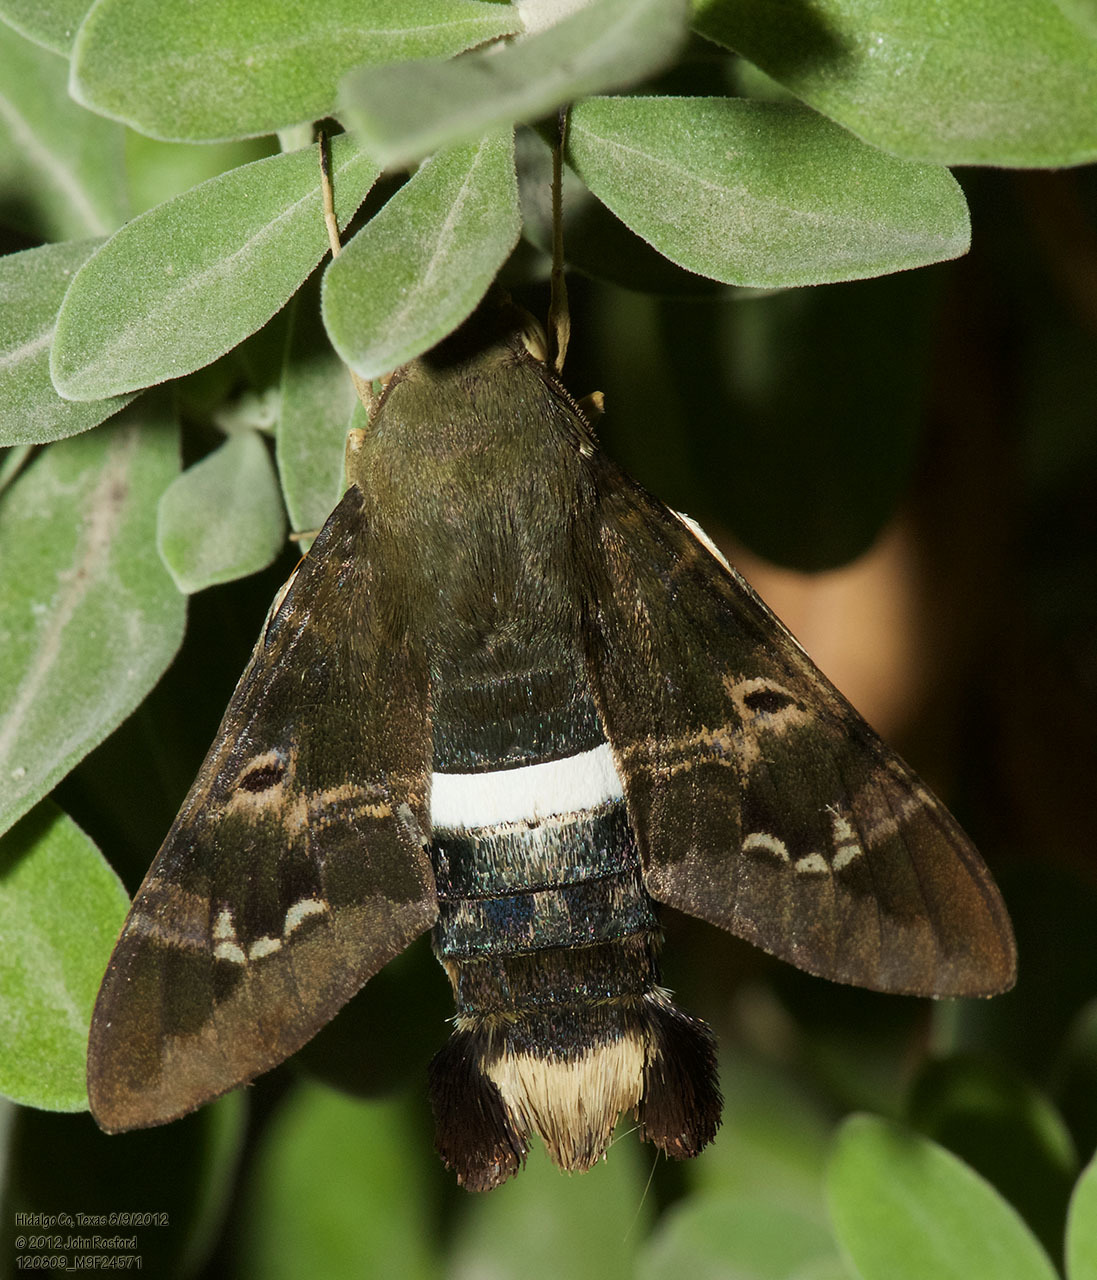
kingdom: Animalia
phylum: Arthropoda
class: Insecta
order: Lepidoptera
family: Sphingidae
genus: Aellopos
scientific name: Aellopos clavipes
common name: Clavipes sphinx
